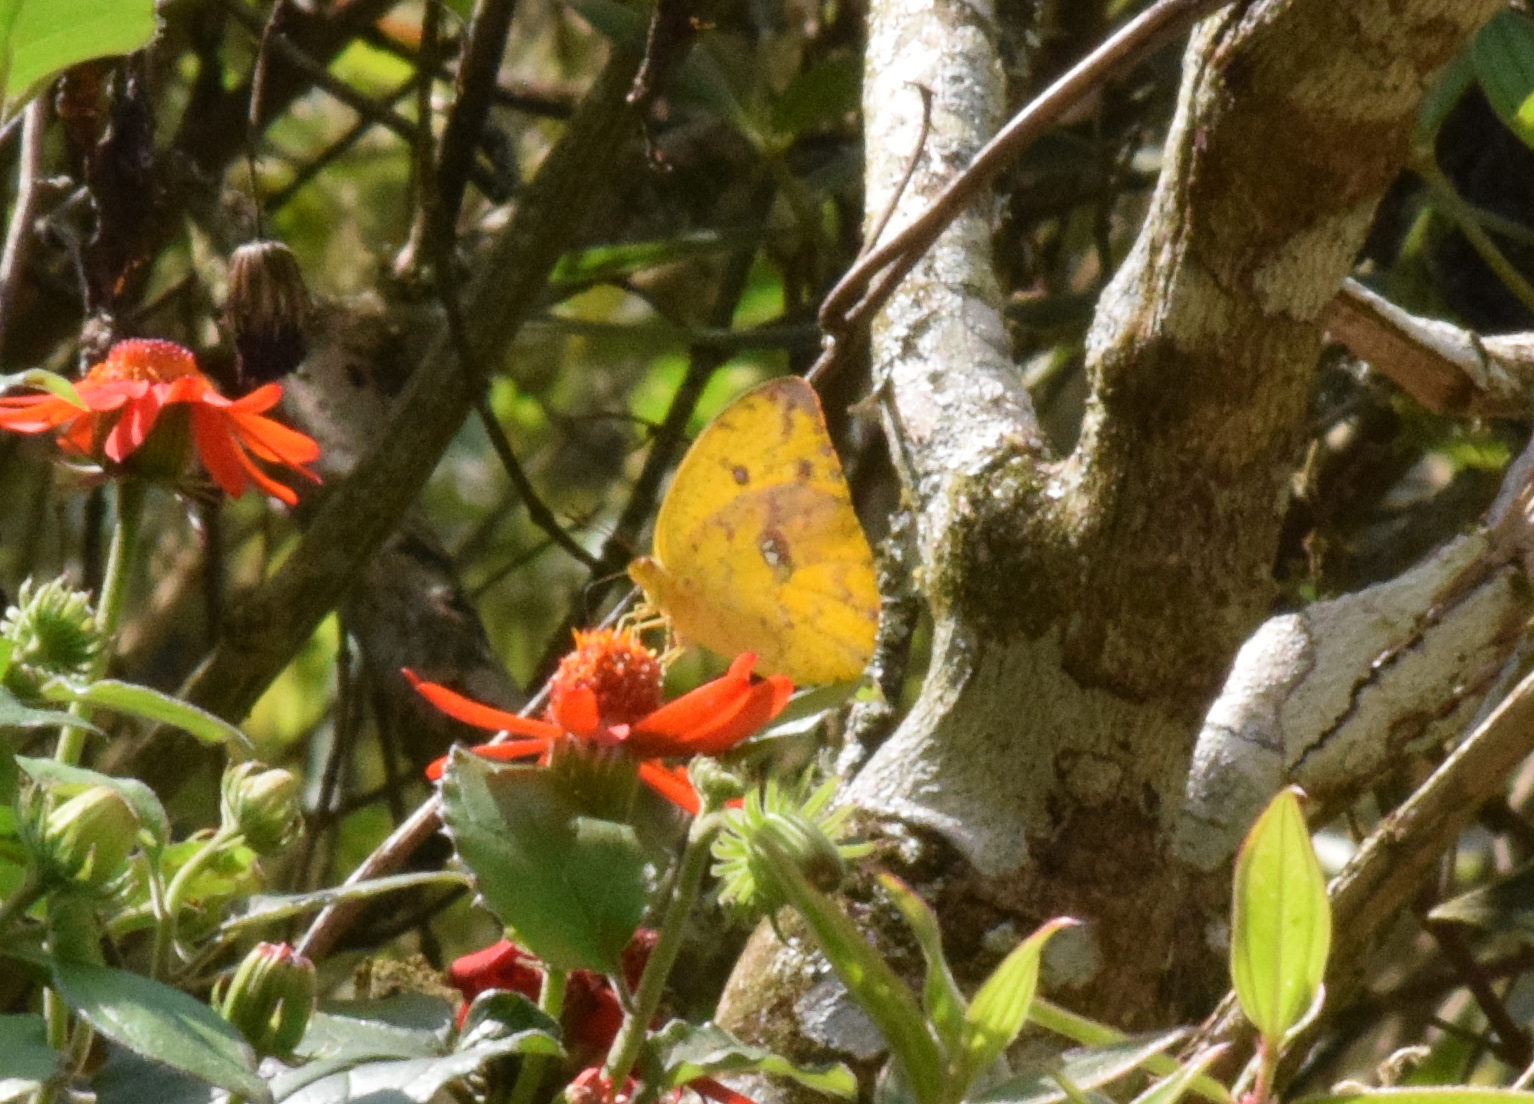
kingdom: Animalia
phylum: Arthropoda
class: Insecta
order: Lepidoptera
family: Pieridae
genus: Phoebis
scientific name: Phoebis argante
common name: Apricot sulphur
